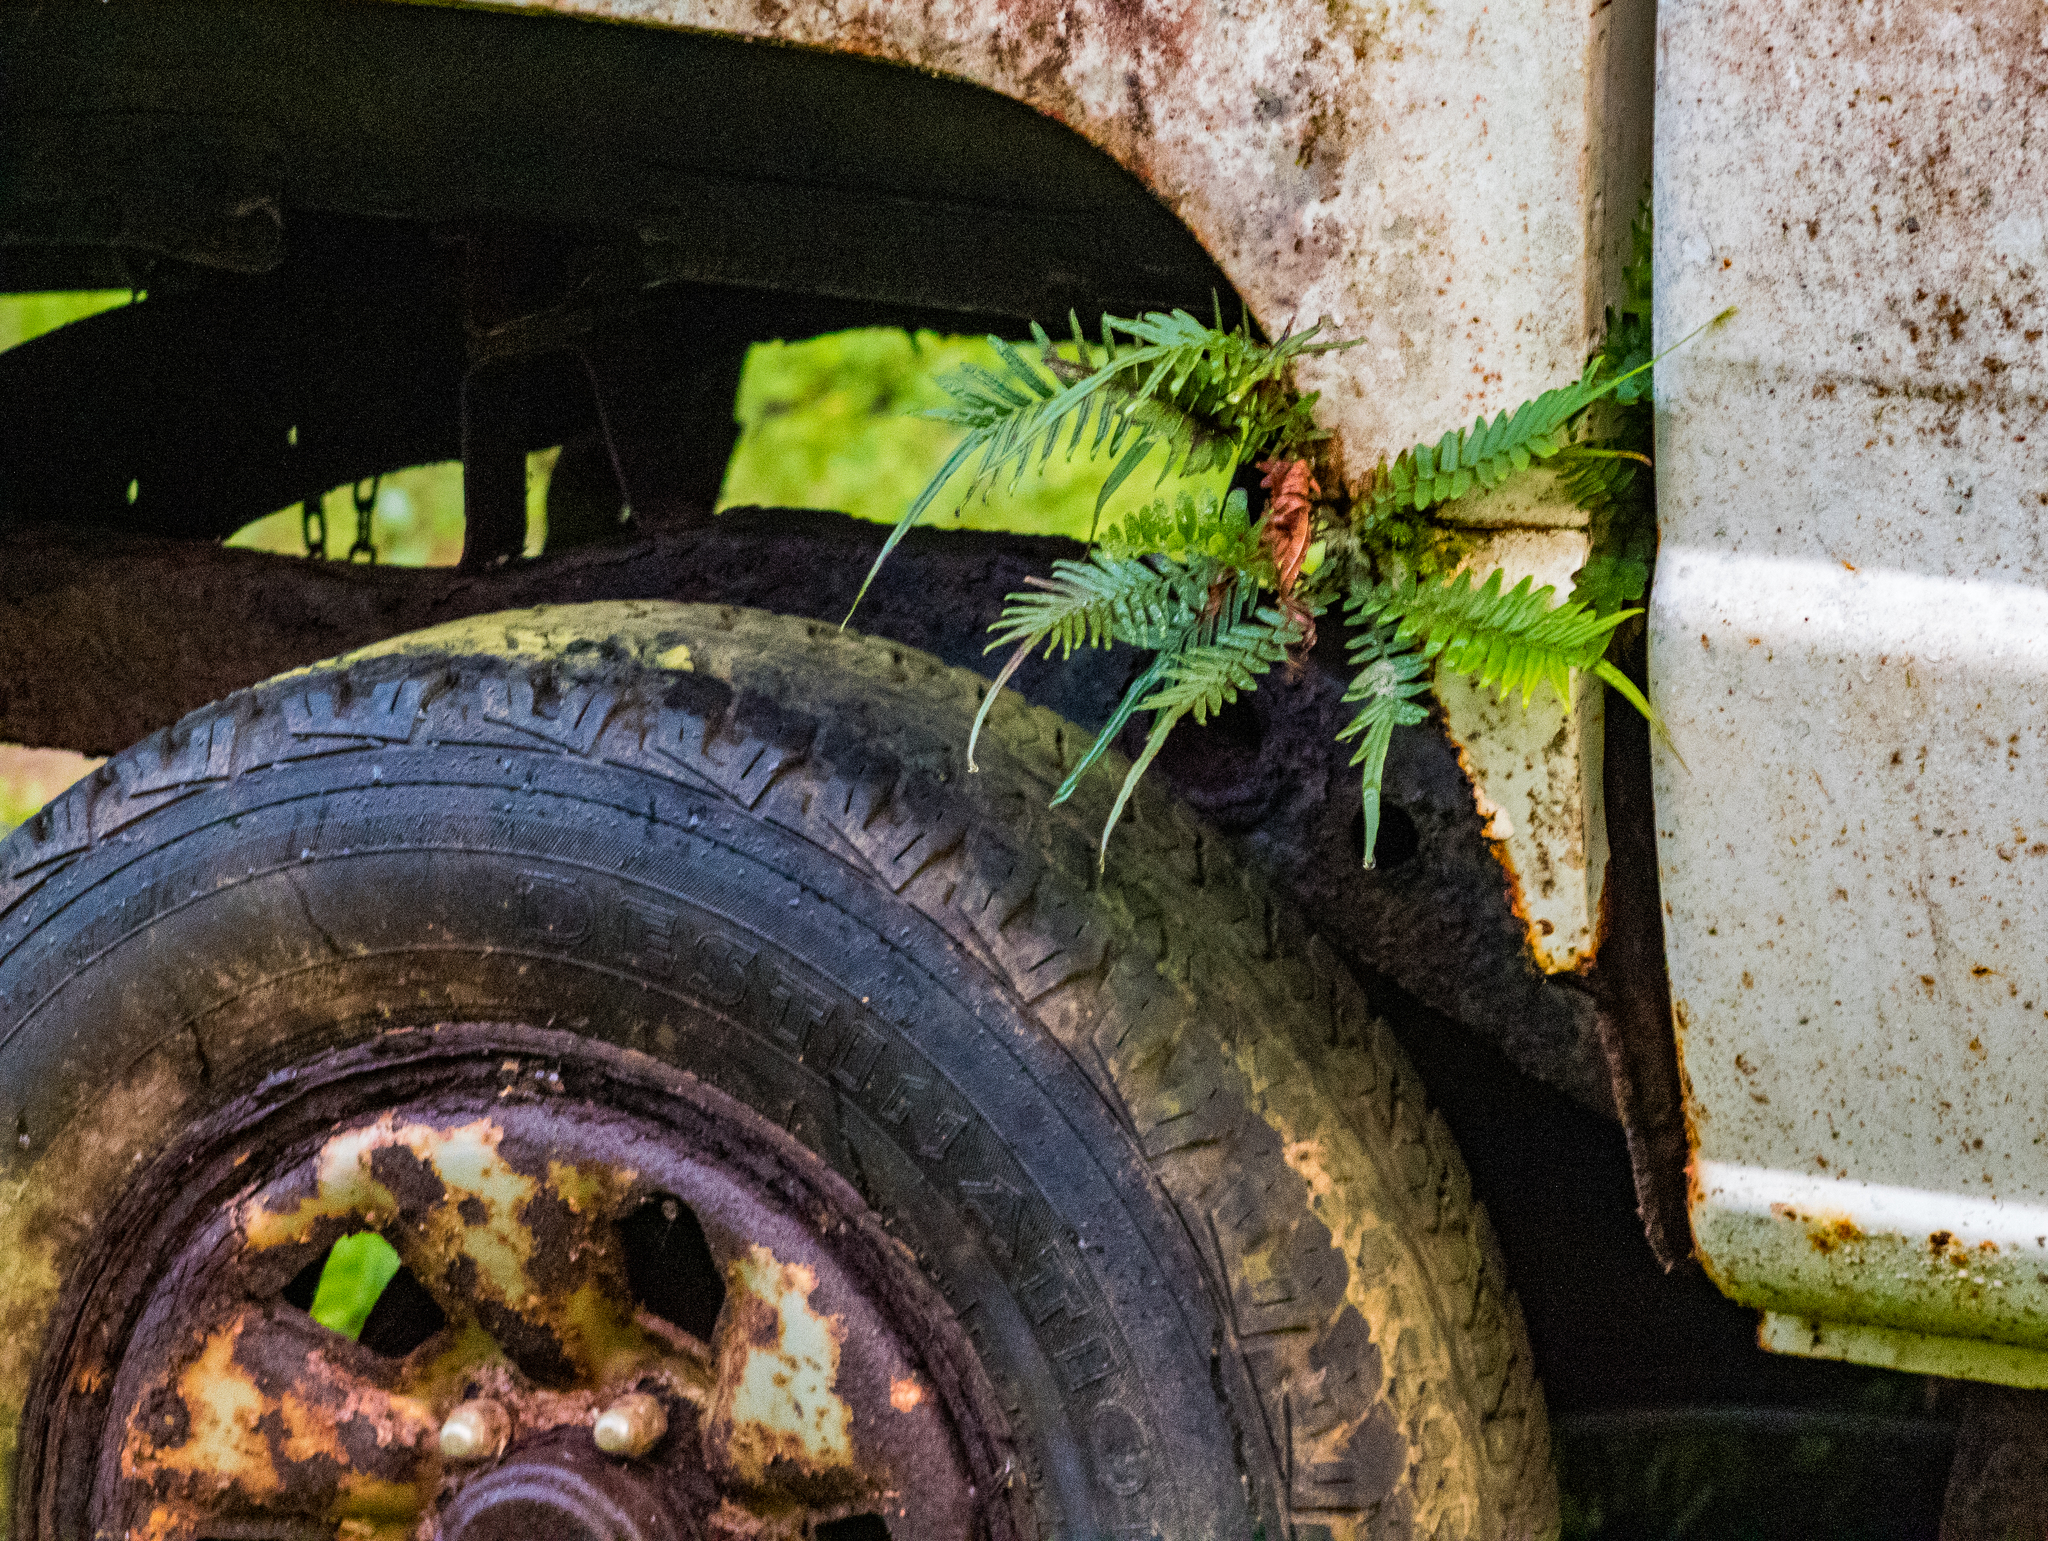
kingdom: Plantae
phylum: Tracheophyta
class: Polypodiopsida
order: Polypodiales
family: Pteridaceae
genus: Pteris
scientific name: Pteris vittata
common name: Ladder brake
